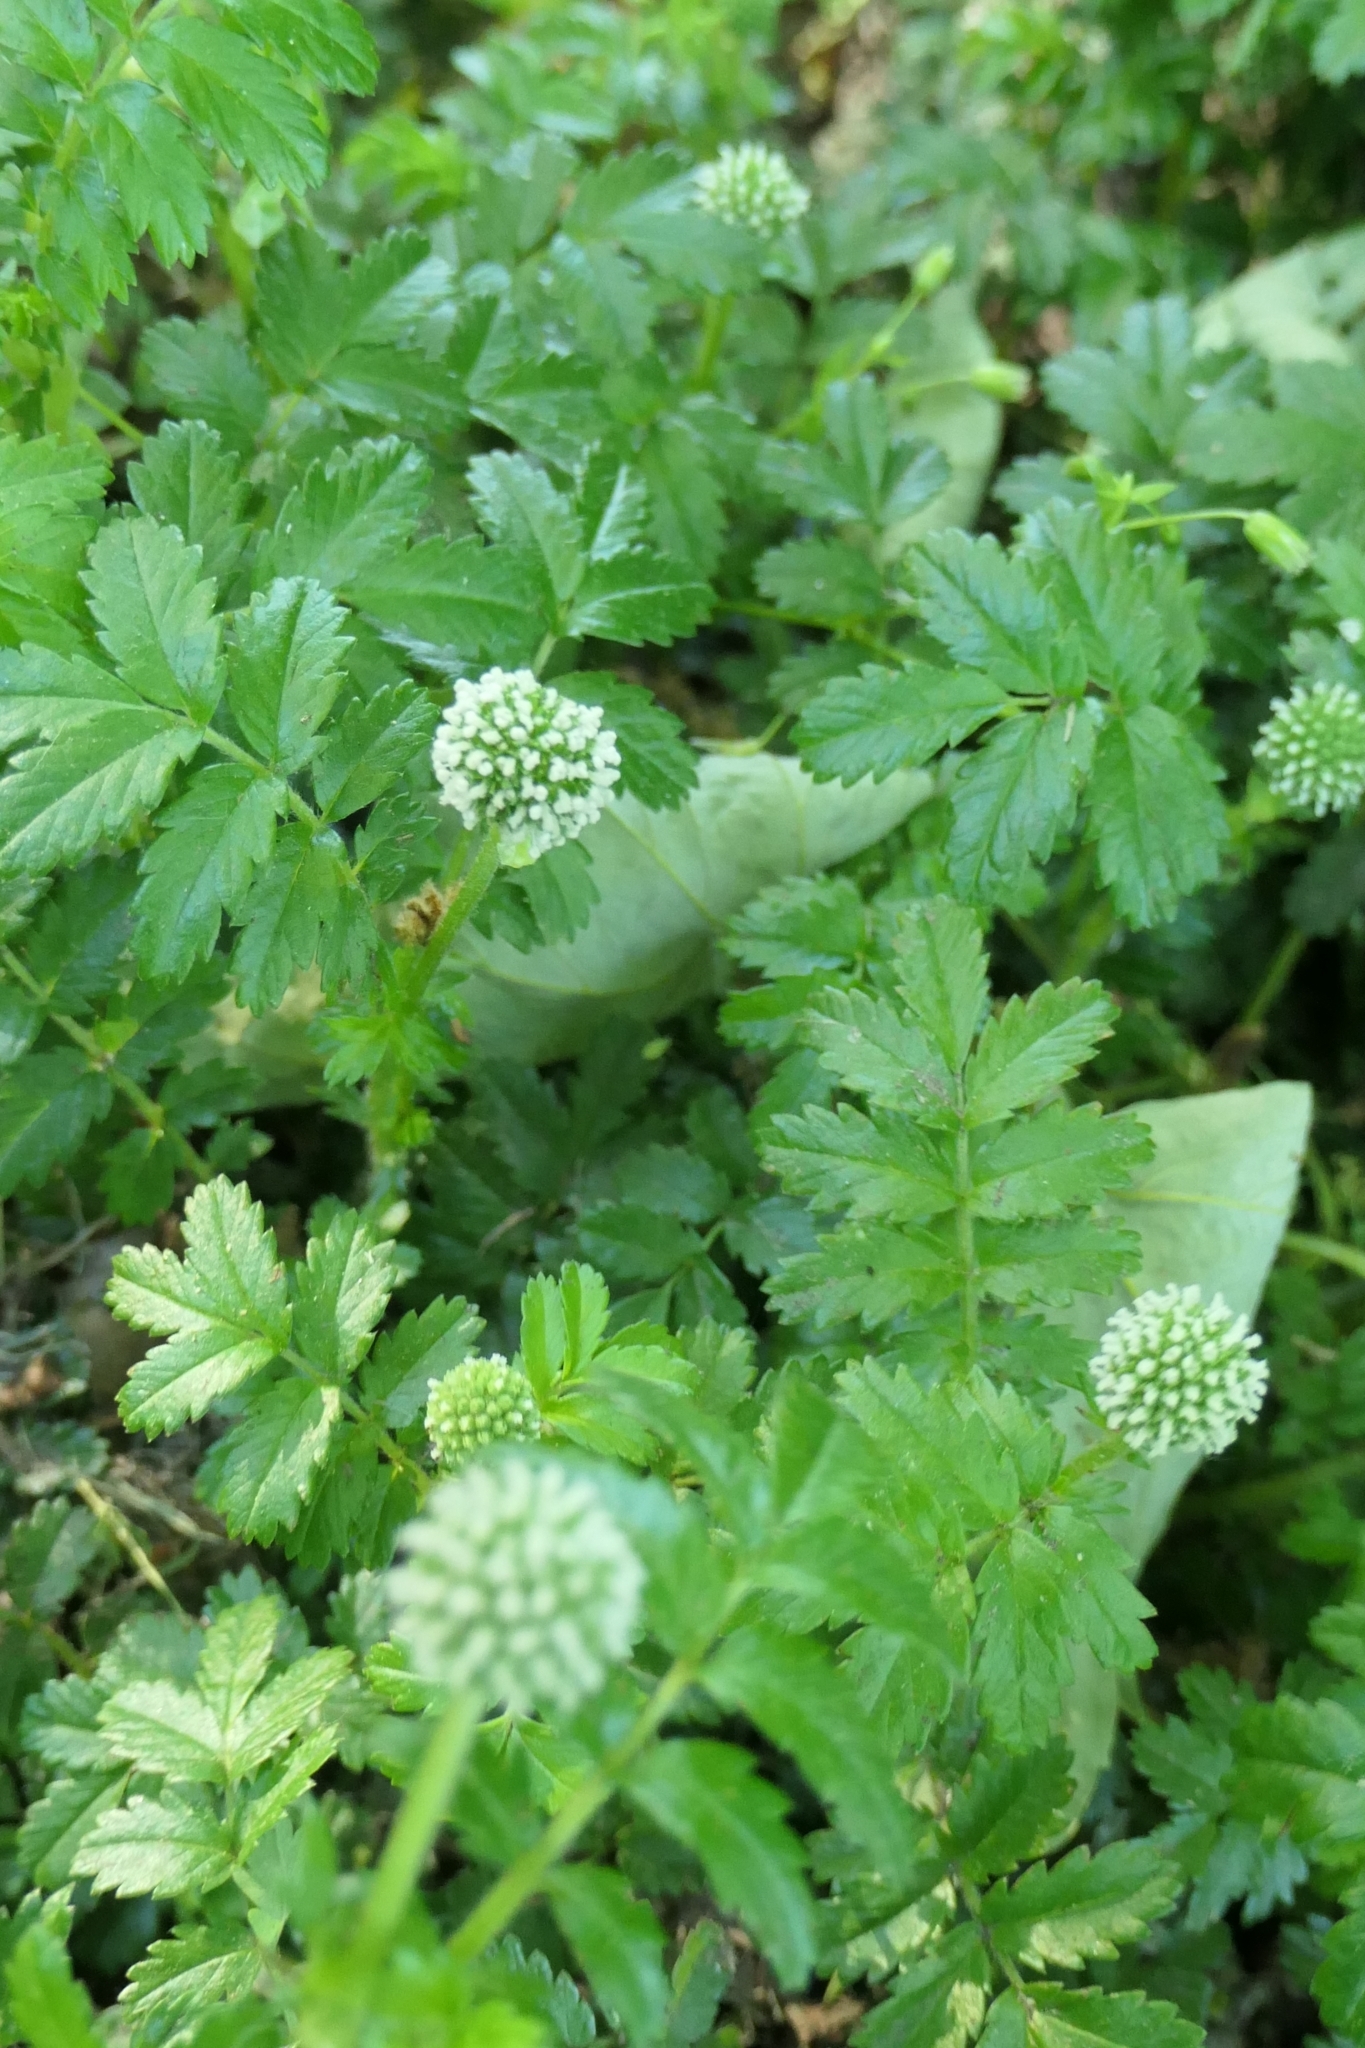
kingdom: Plantae
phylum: Tracheophyta
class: Magnoliopsida
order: Rosales
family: Rosaceae
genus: Acaena
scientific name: Acaena pallida
